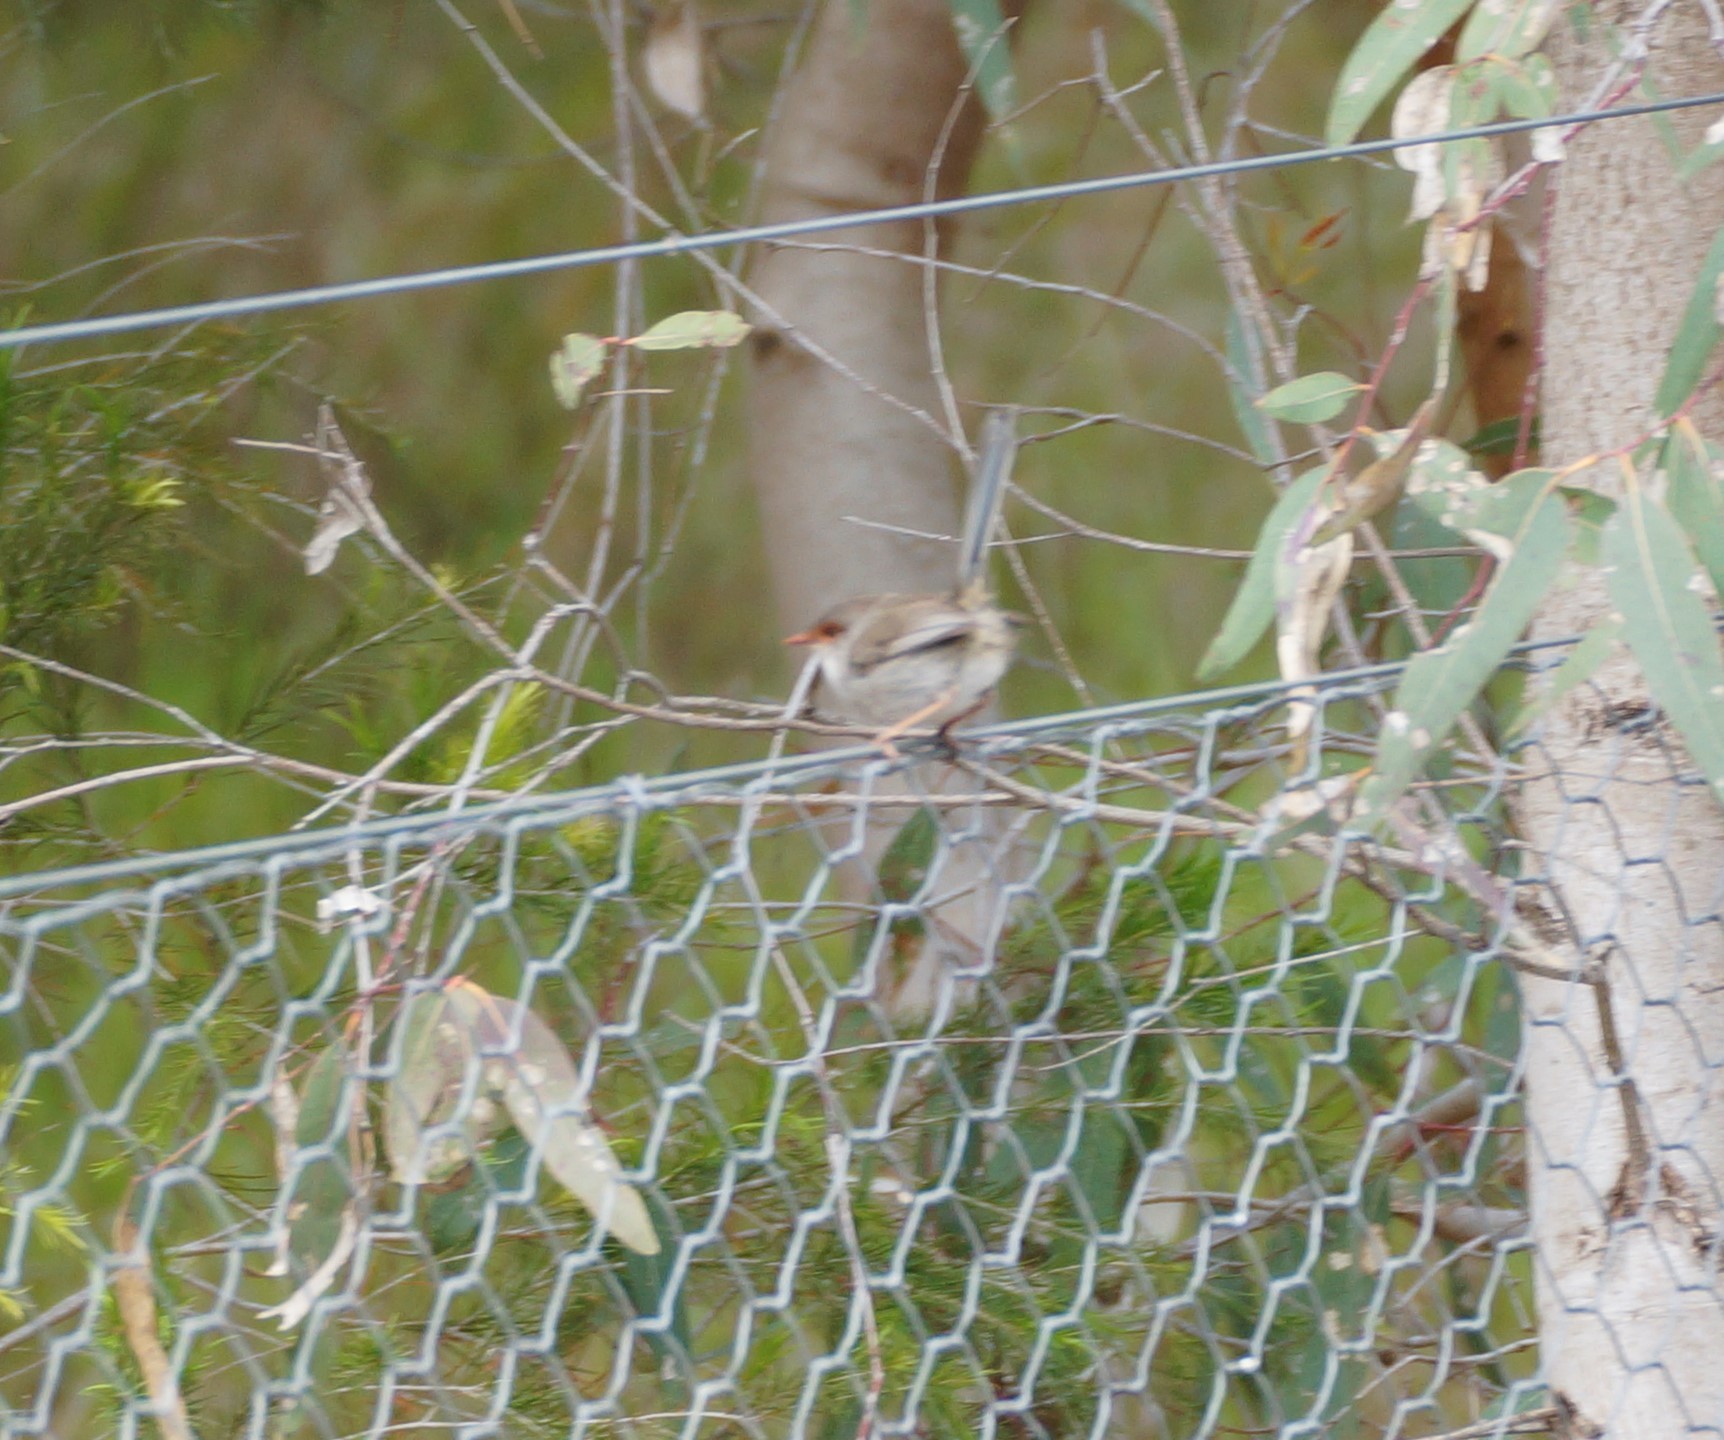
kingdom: Animalia
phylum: Chordata
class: Aves
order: Passeriformes
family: Maluridae
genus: Malurus
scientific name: Malurus cyaneus
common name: Superb fairywren
